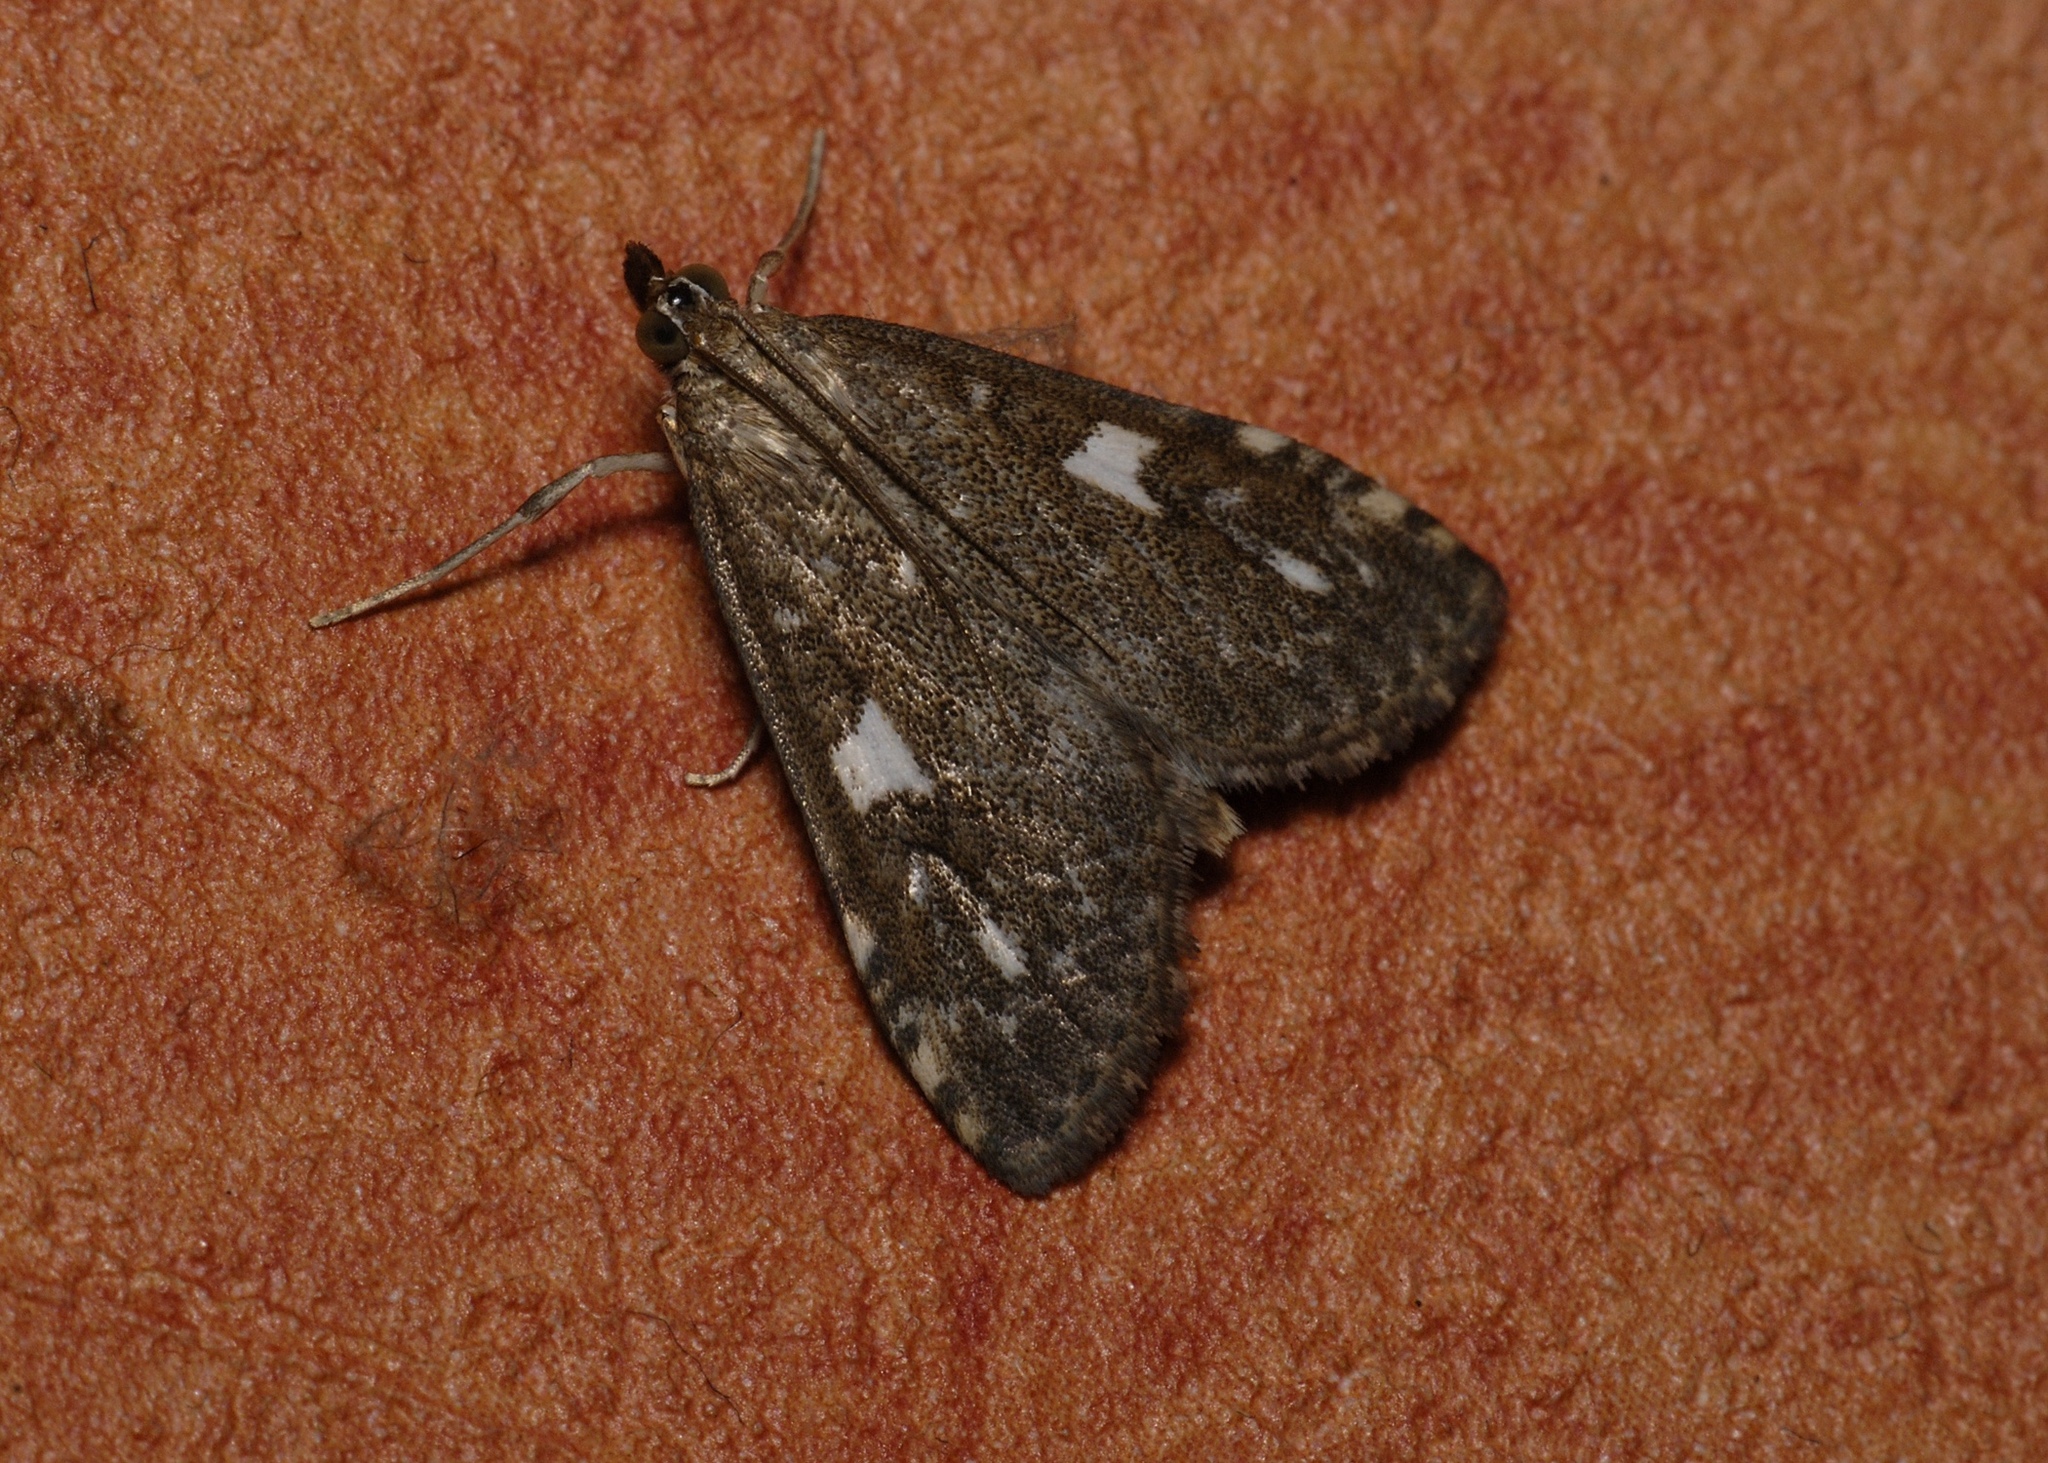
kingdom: Animalia
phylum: Arthropoda
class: Insecta
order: Lepidoptera
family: Crambidae
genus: Udea
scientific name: Udea olivalis
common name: Olive pearl
